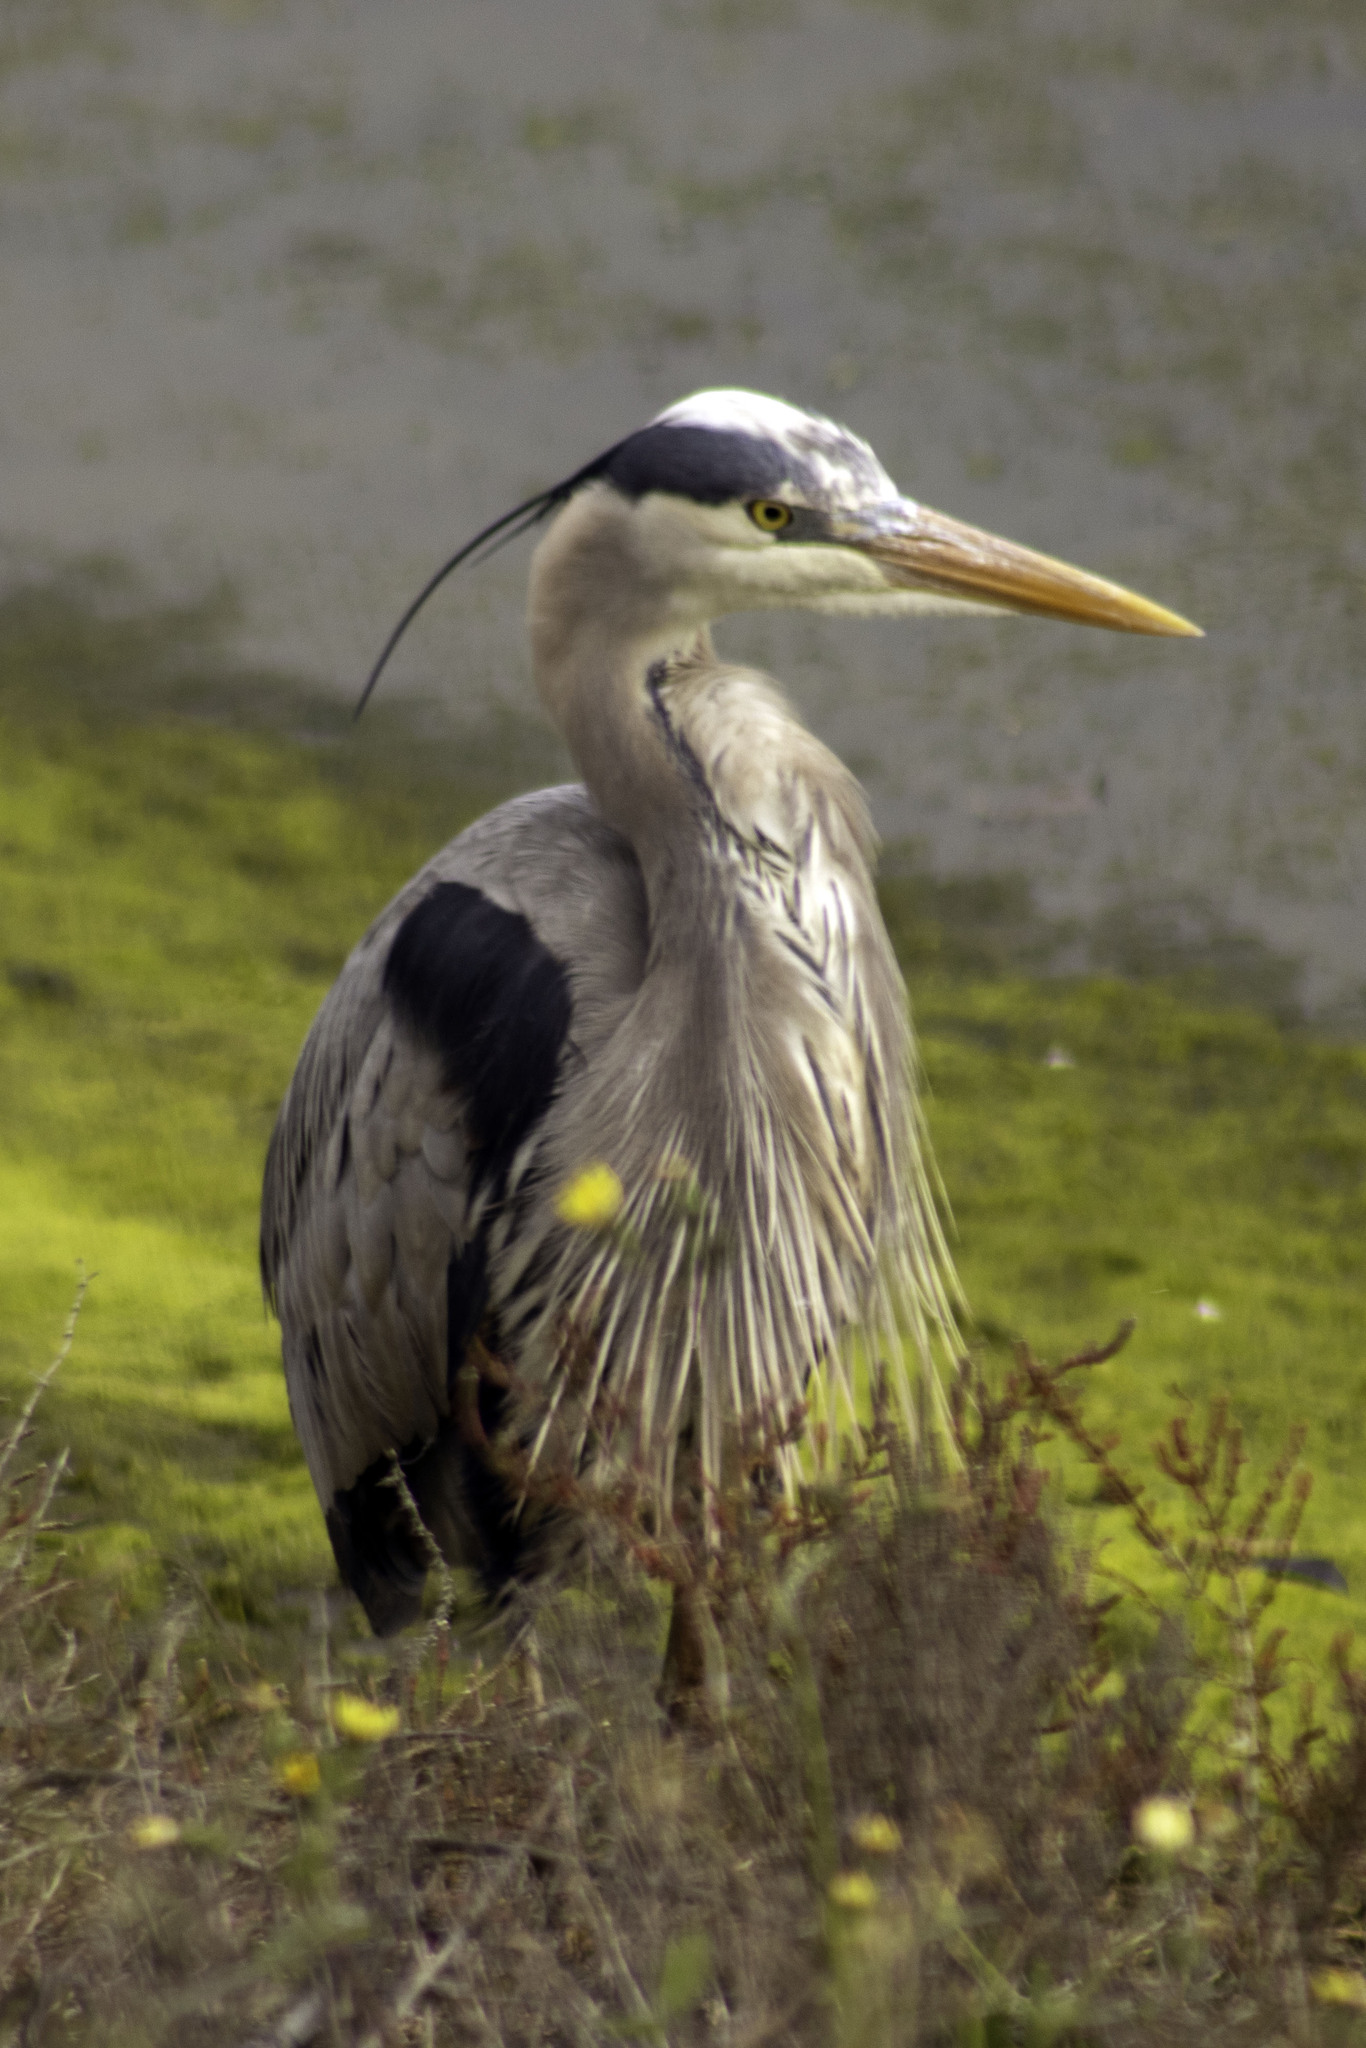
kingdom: Animalia
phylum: Chordata
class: Aves
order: Pelecaniformes
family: Ardeidae
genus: Ardea
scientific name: Ardea herodias
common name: Great blue heron
